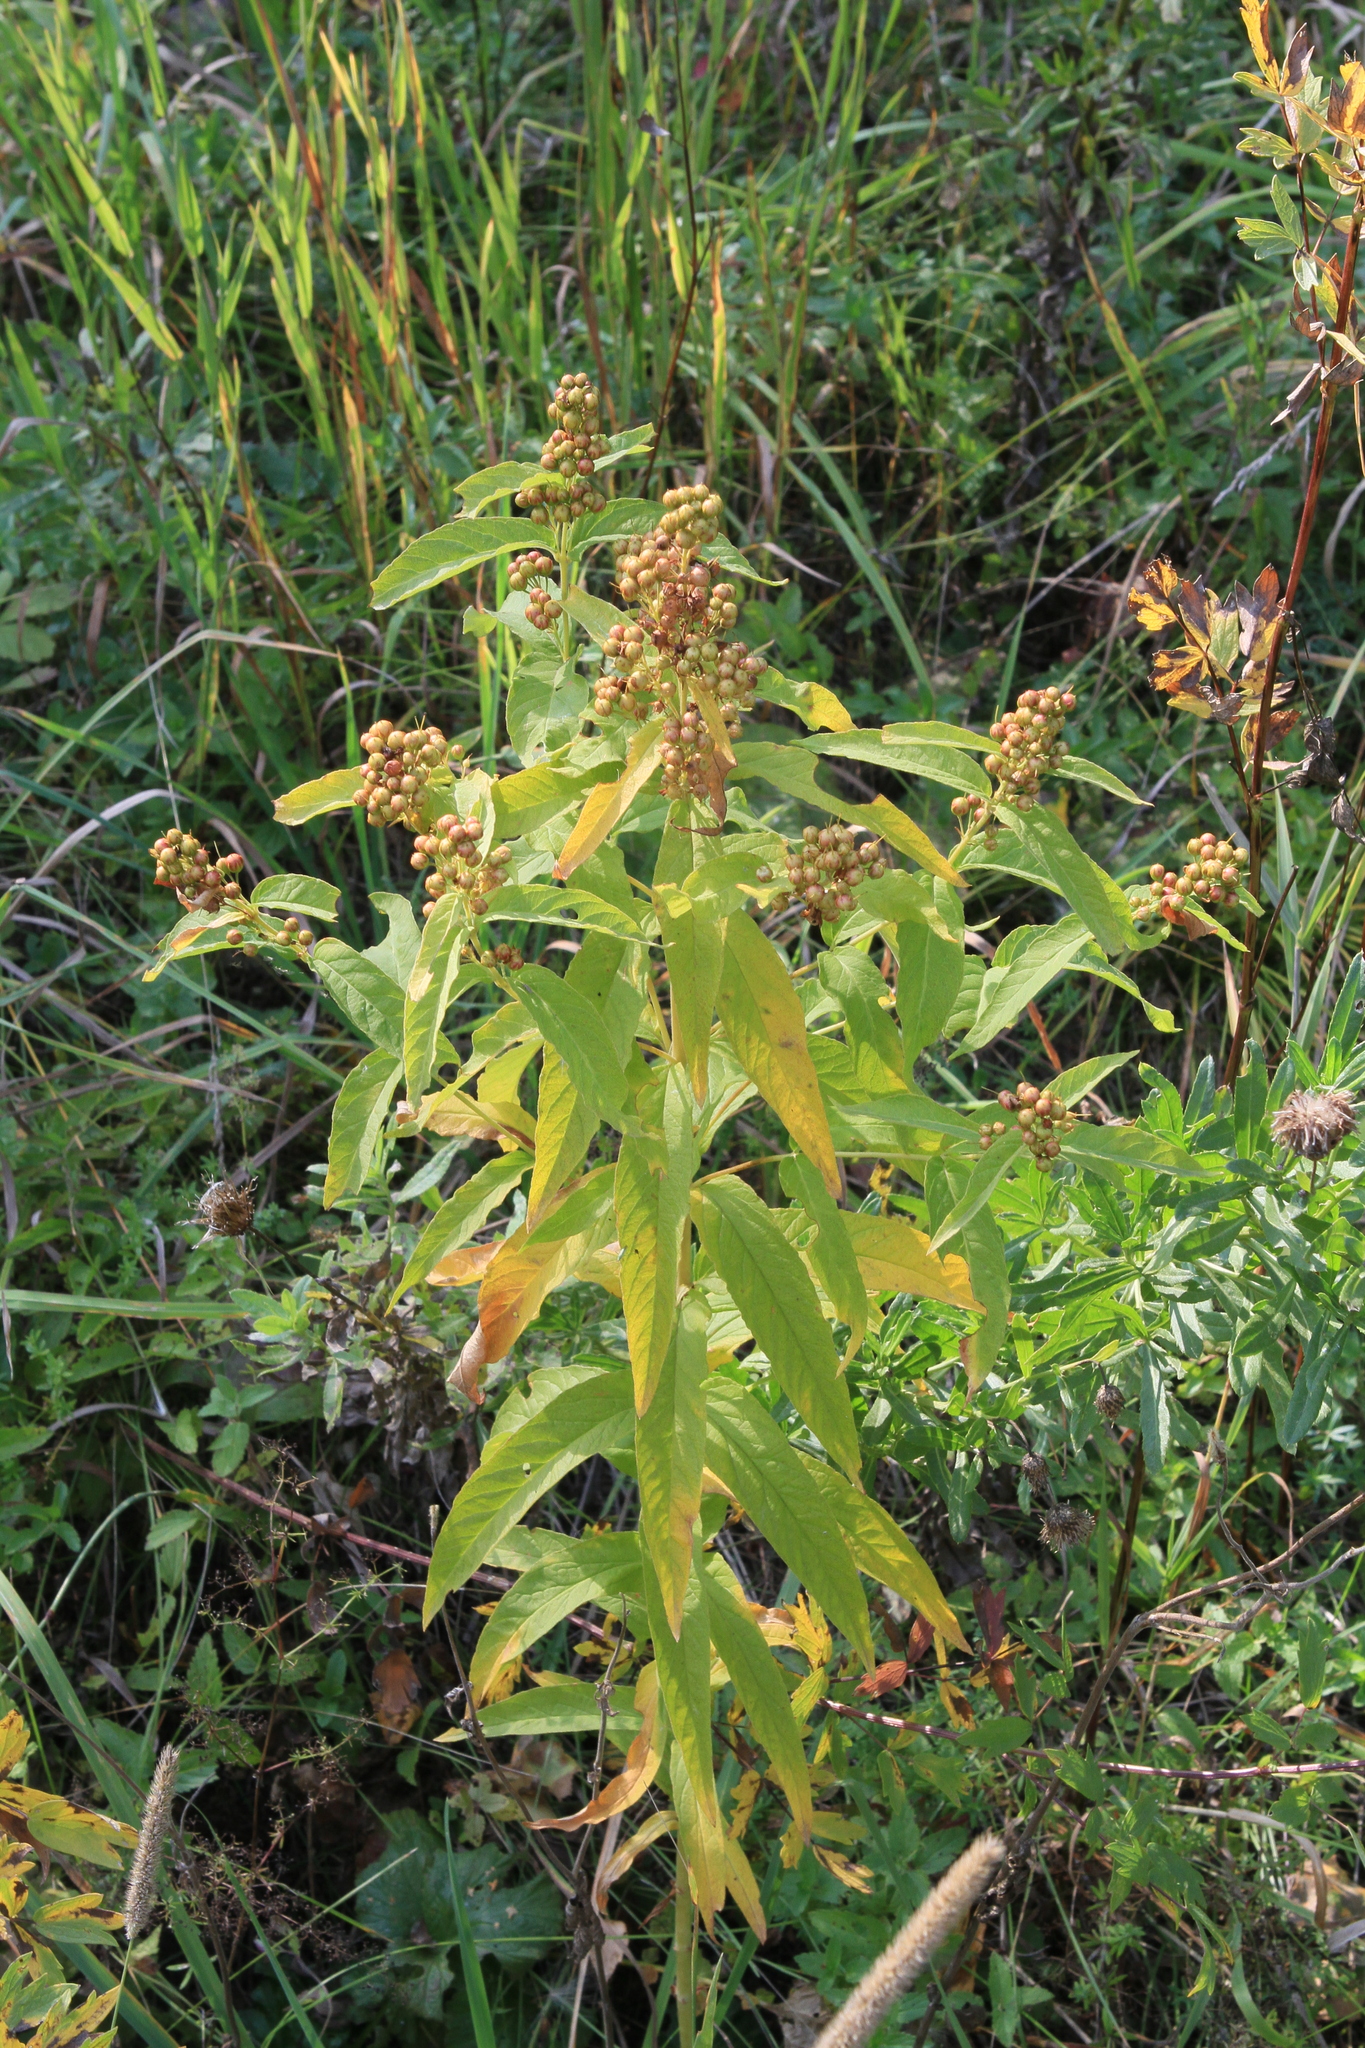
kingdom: Plantae
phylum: Tracheophyta
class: Magnoliopsida
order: Ericales
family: Primulaceae
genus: Lysimachia
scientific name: Lysimachia vulgaris
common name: Yellow loosestrife
